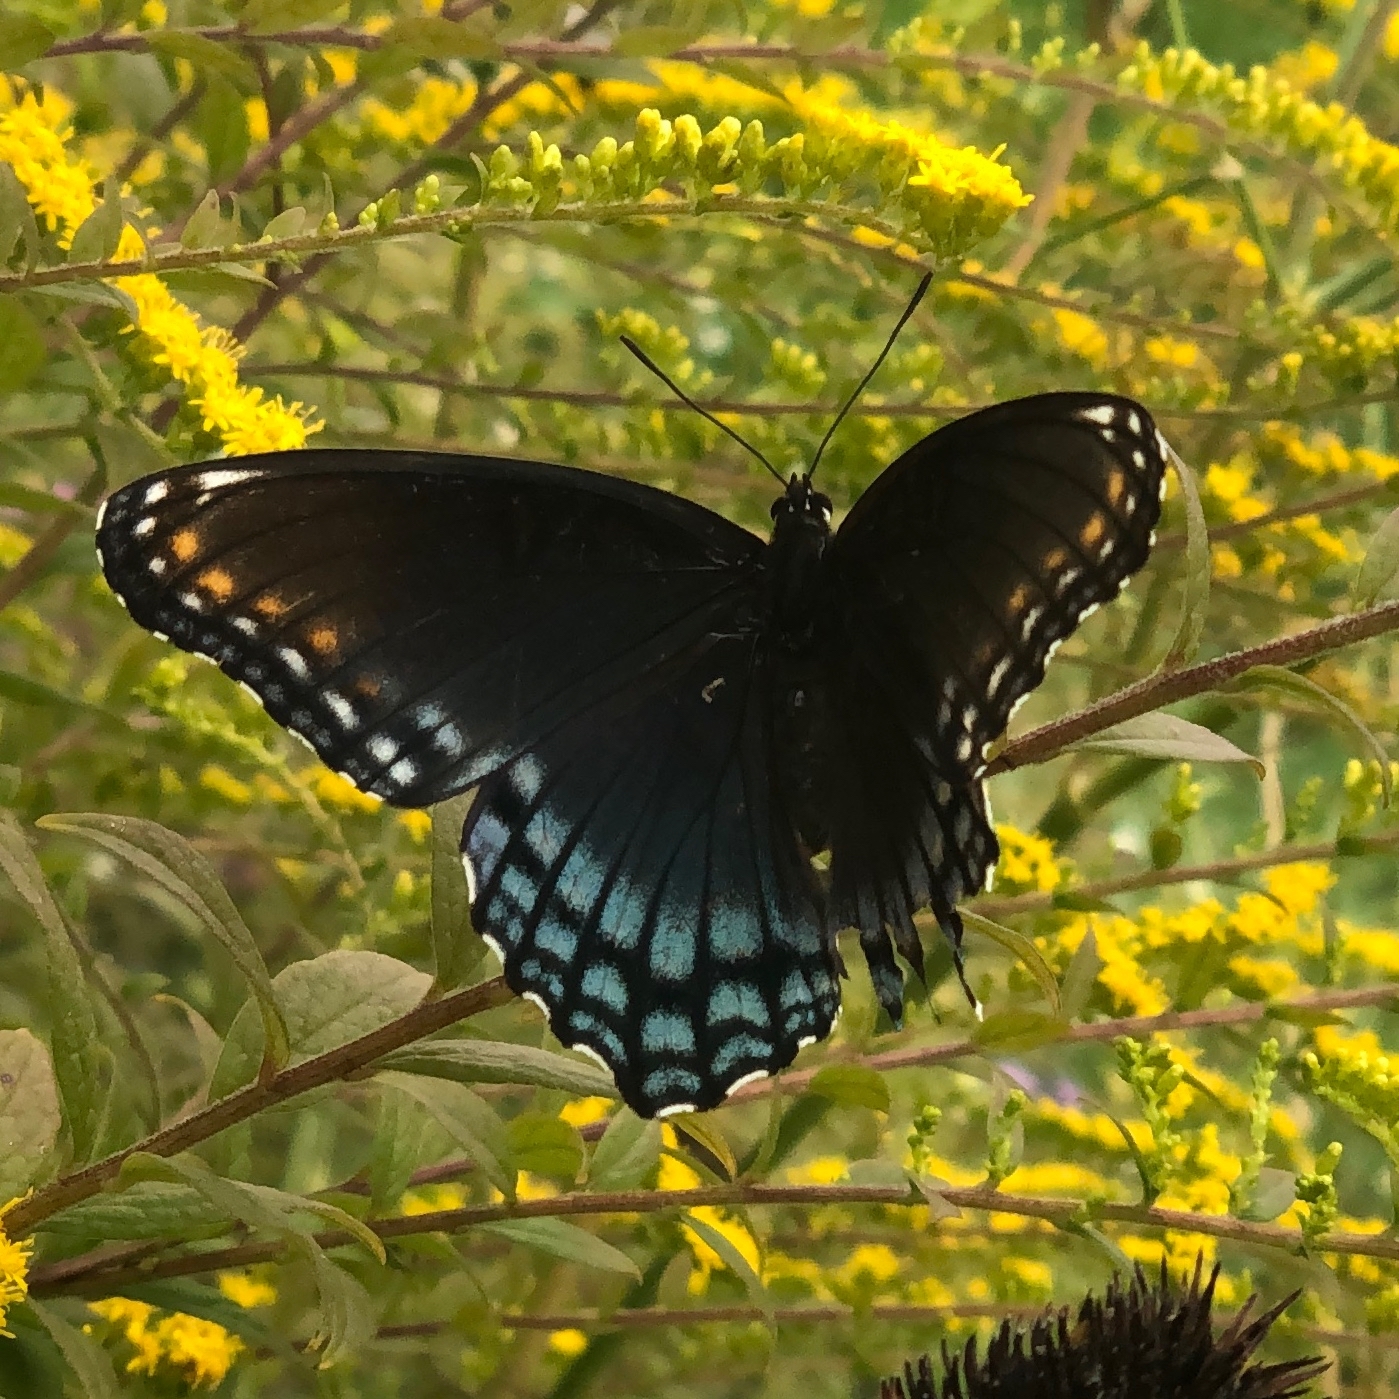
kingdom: Animalia
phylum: Arthropoda
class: Insecta
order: Lepidoptera
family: Nymphalidae
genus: Limenitis
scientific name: Limenitis arthemis
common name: Red-spotted admiral
